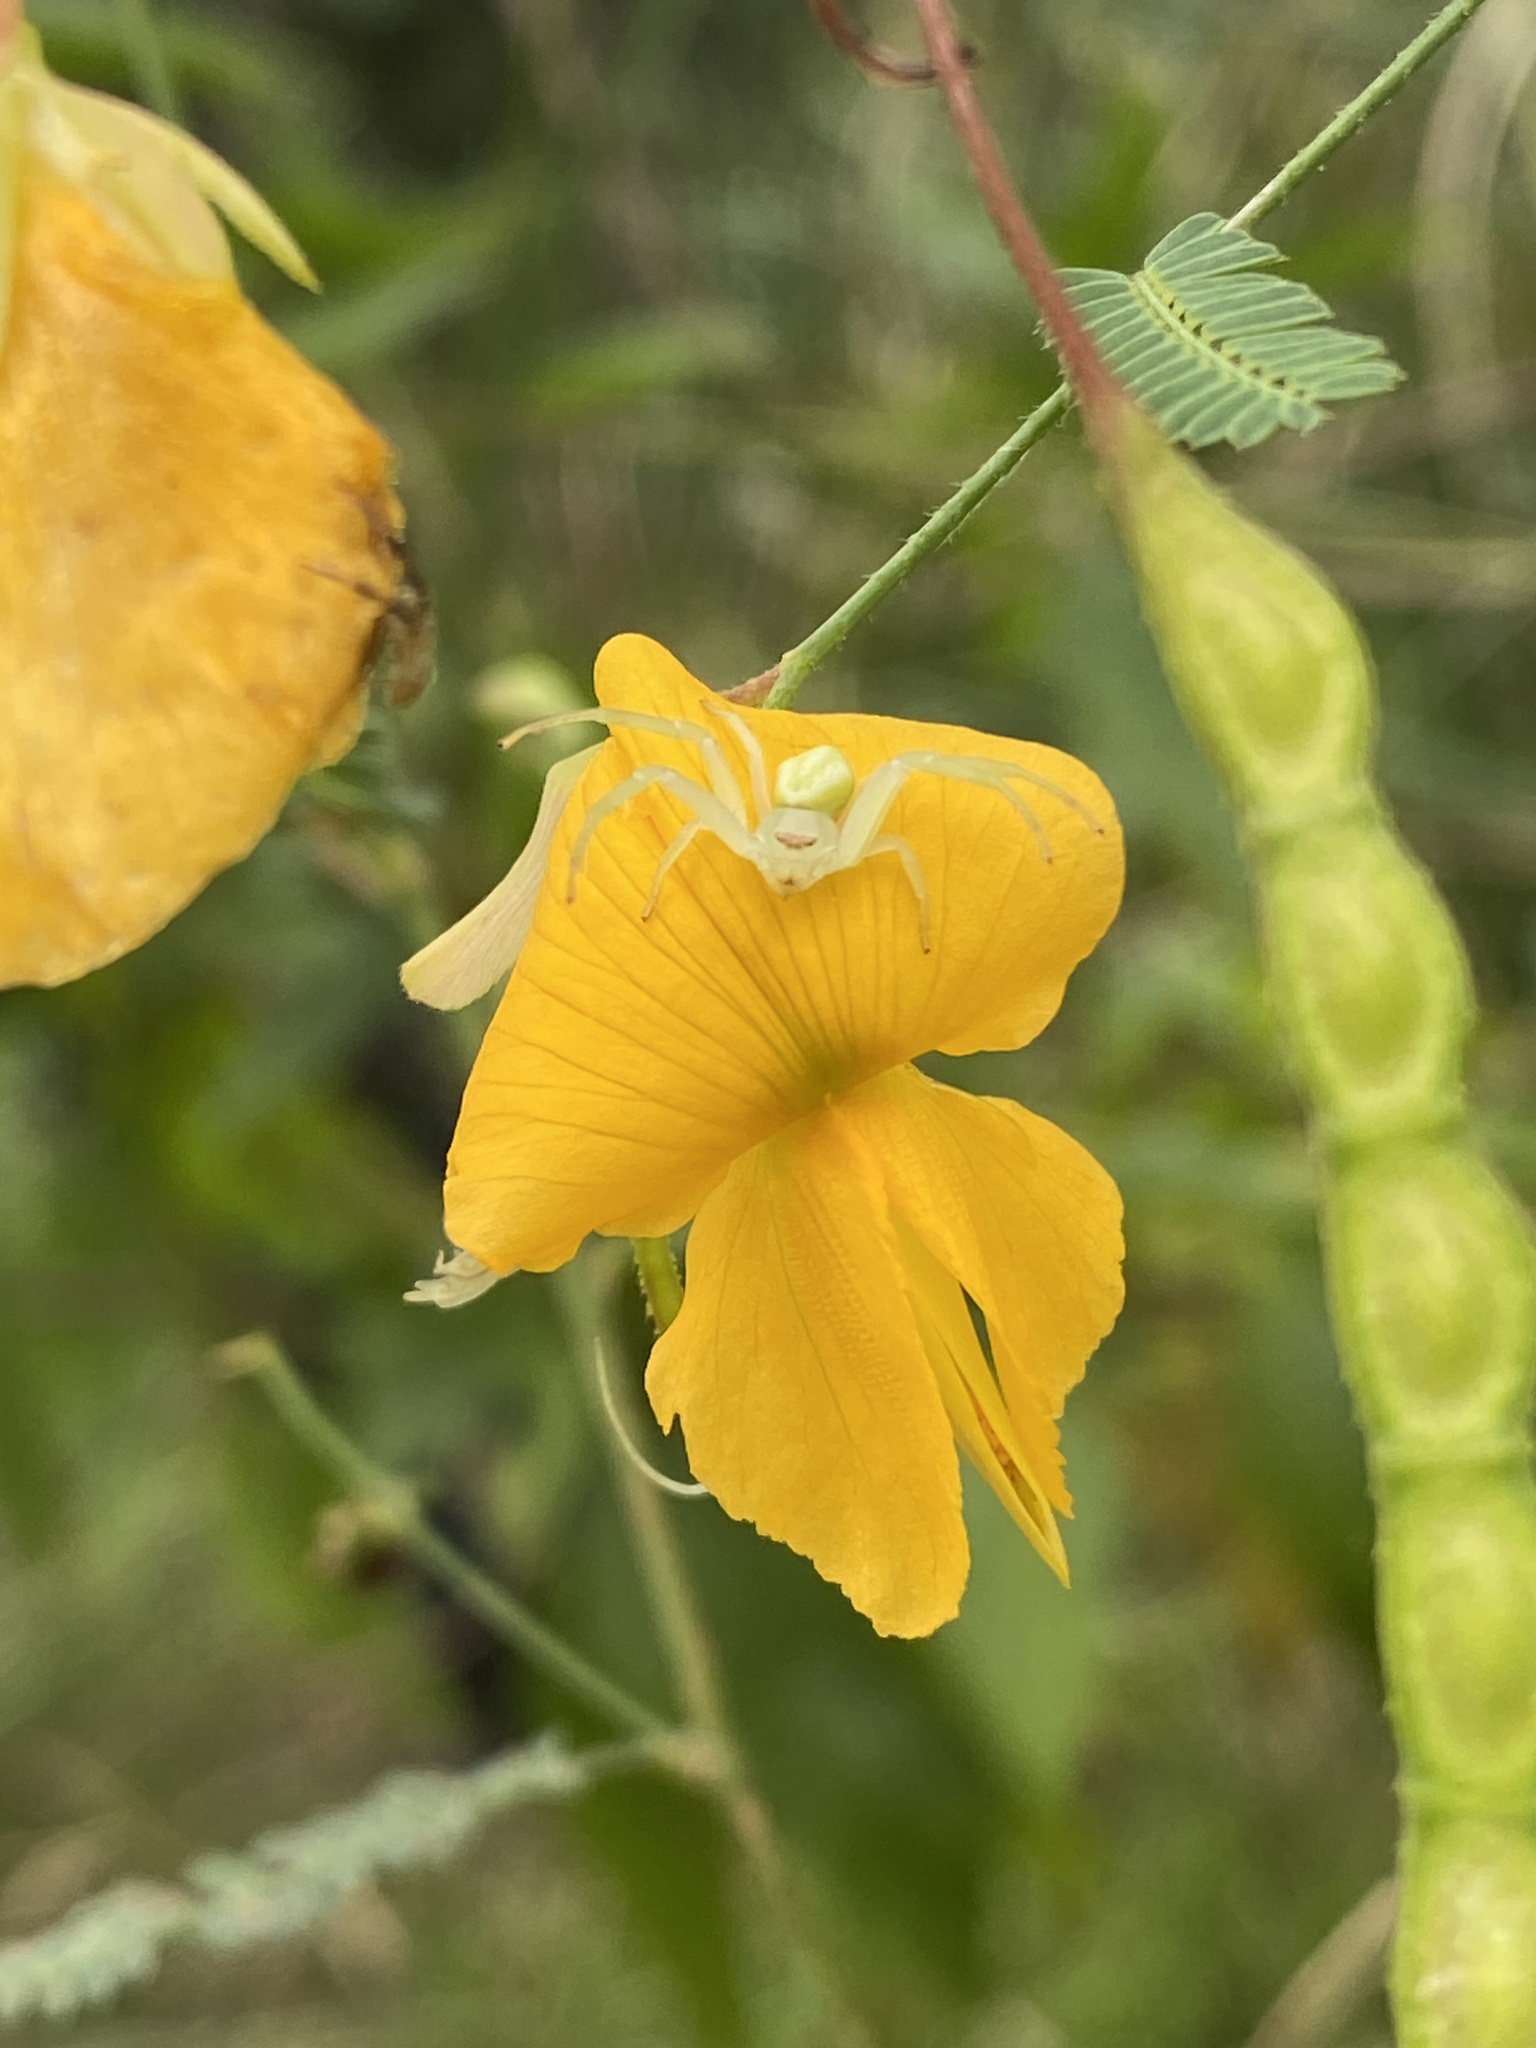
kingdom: Animalia
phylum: Arthropoda
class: Arachnida
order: Araneae
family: Thomisidae
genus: Misumenops
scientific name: Misumenops
